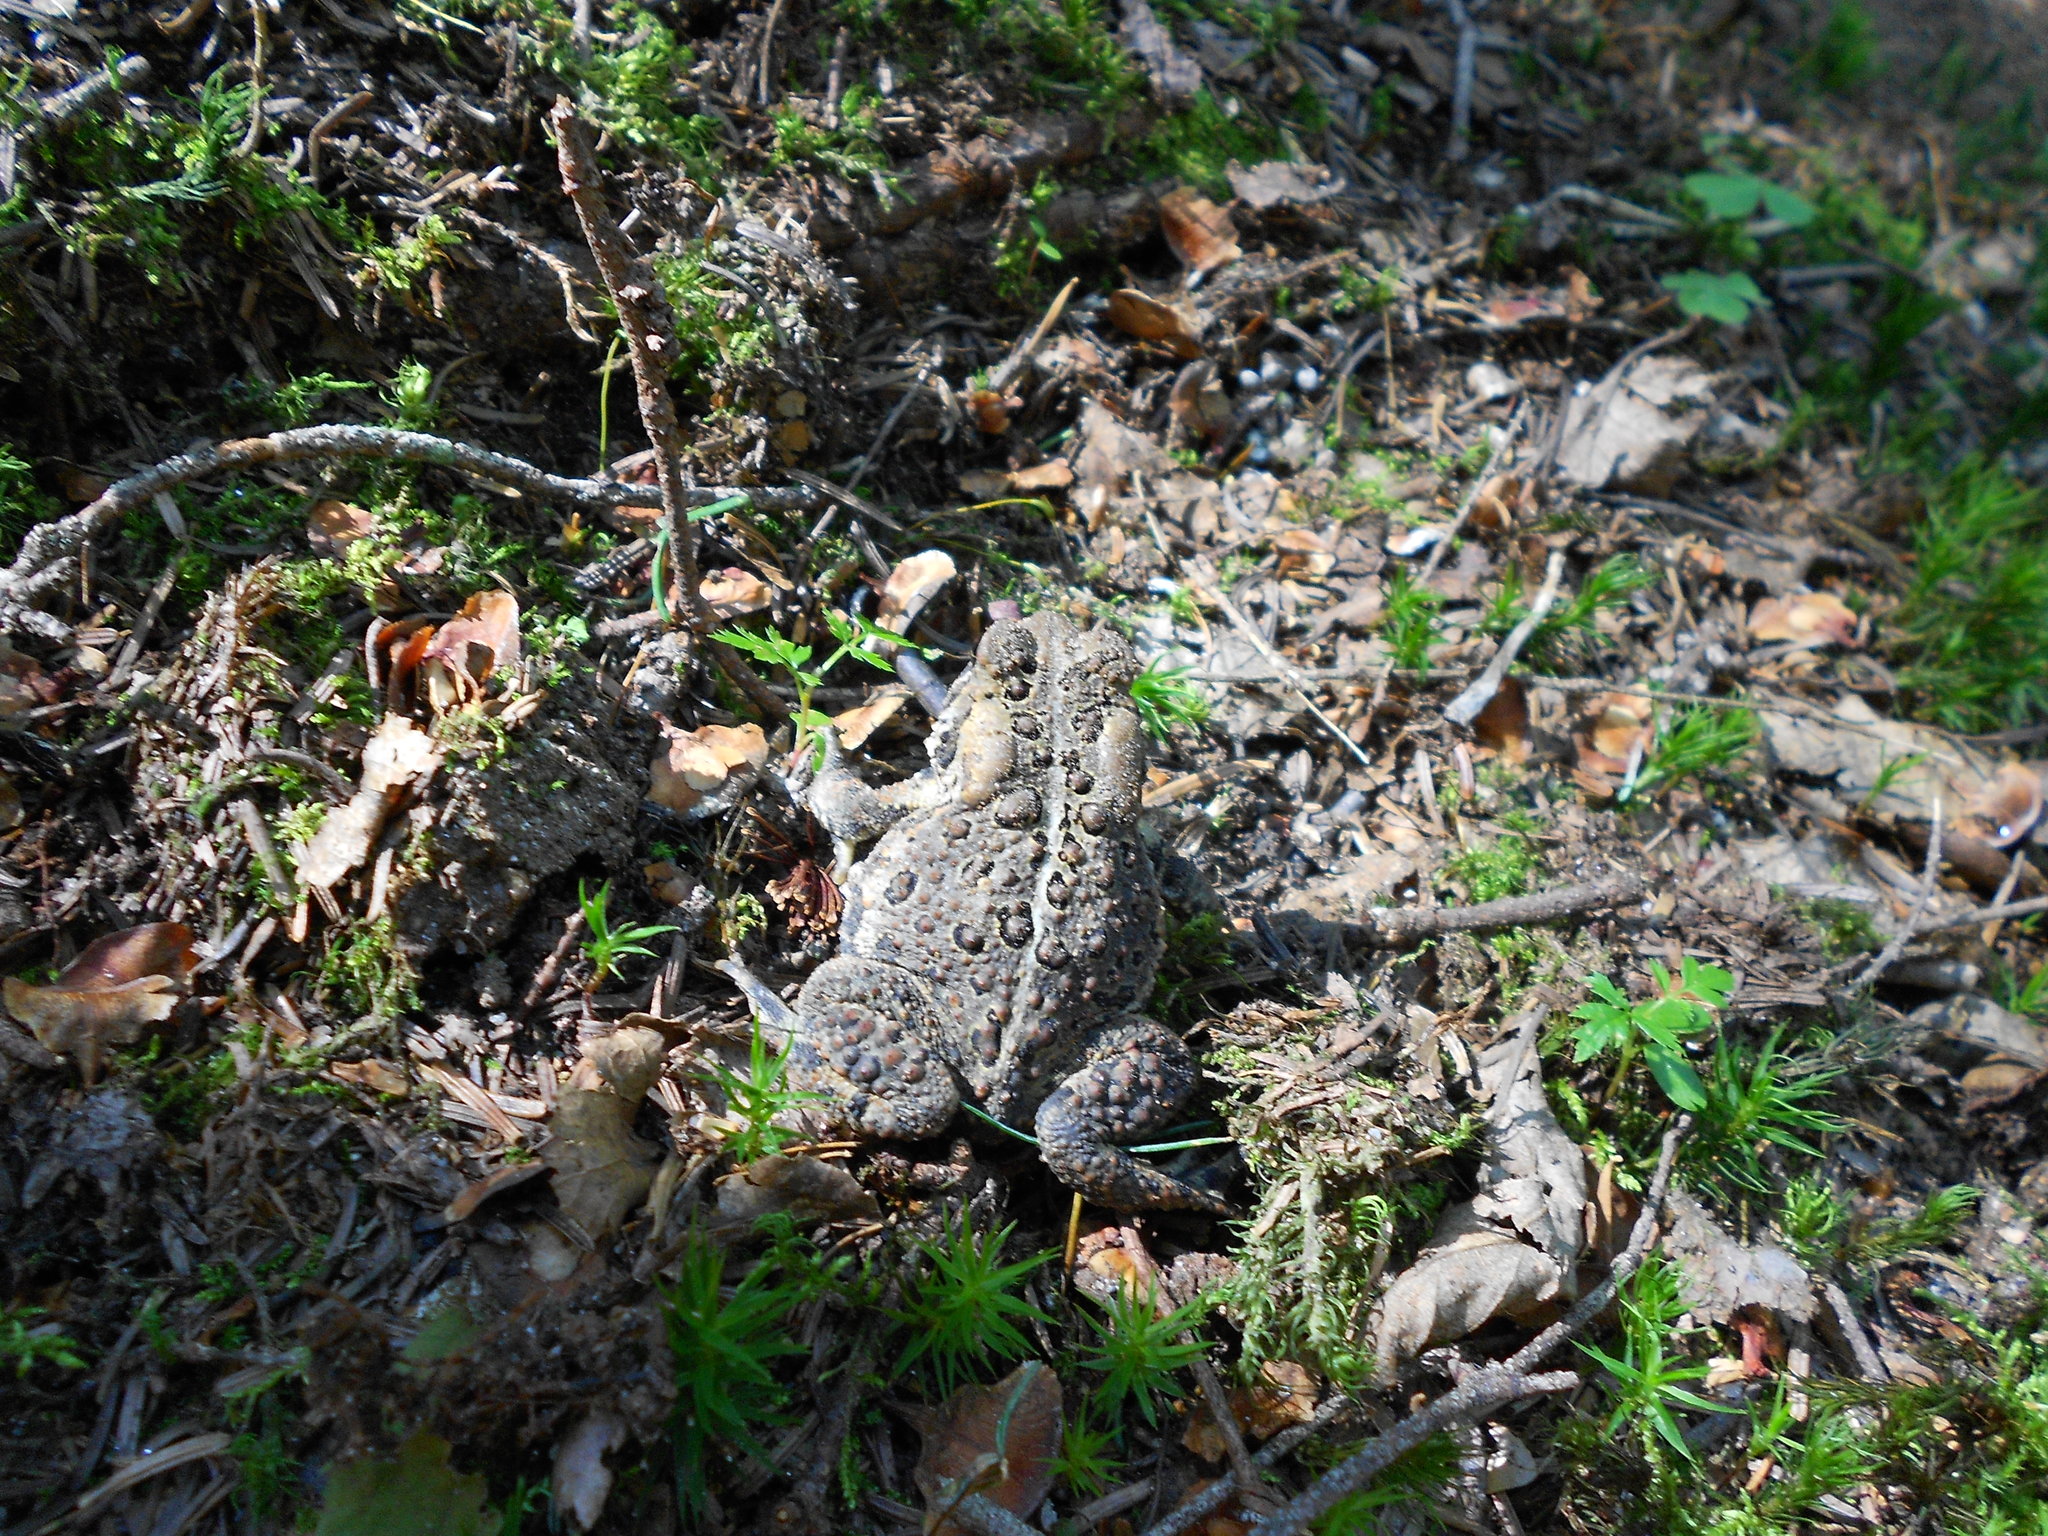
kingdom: Animalia
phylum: Chordata
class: Amphibia
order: Anura
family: Bufonidae
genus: Anaxyrus
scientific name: Anaxyrus americanus
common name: American toad
